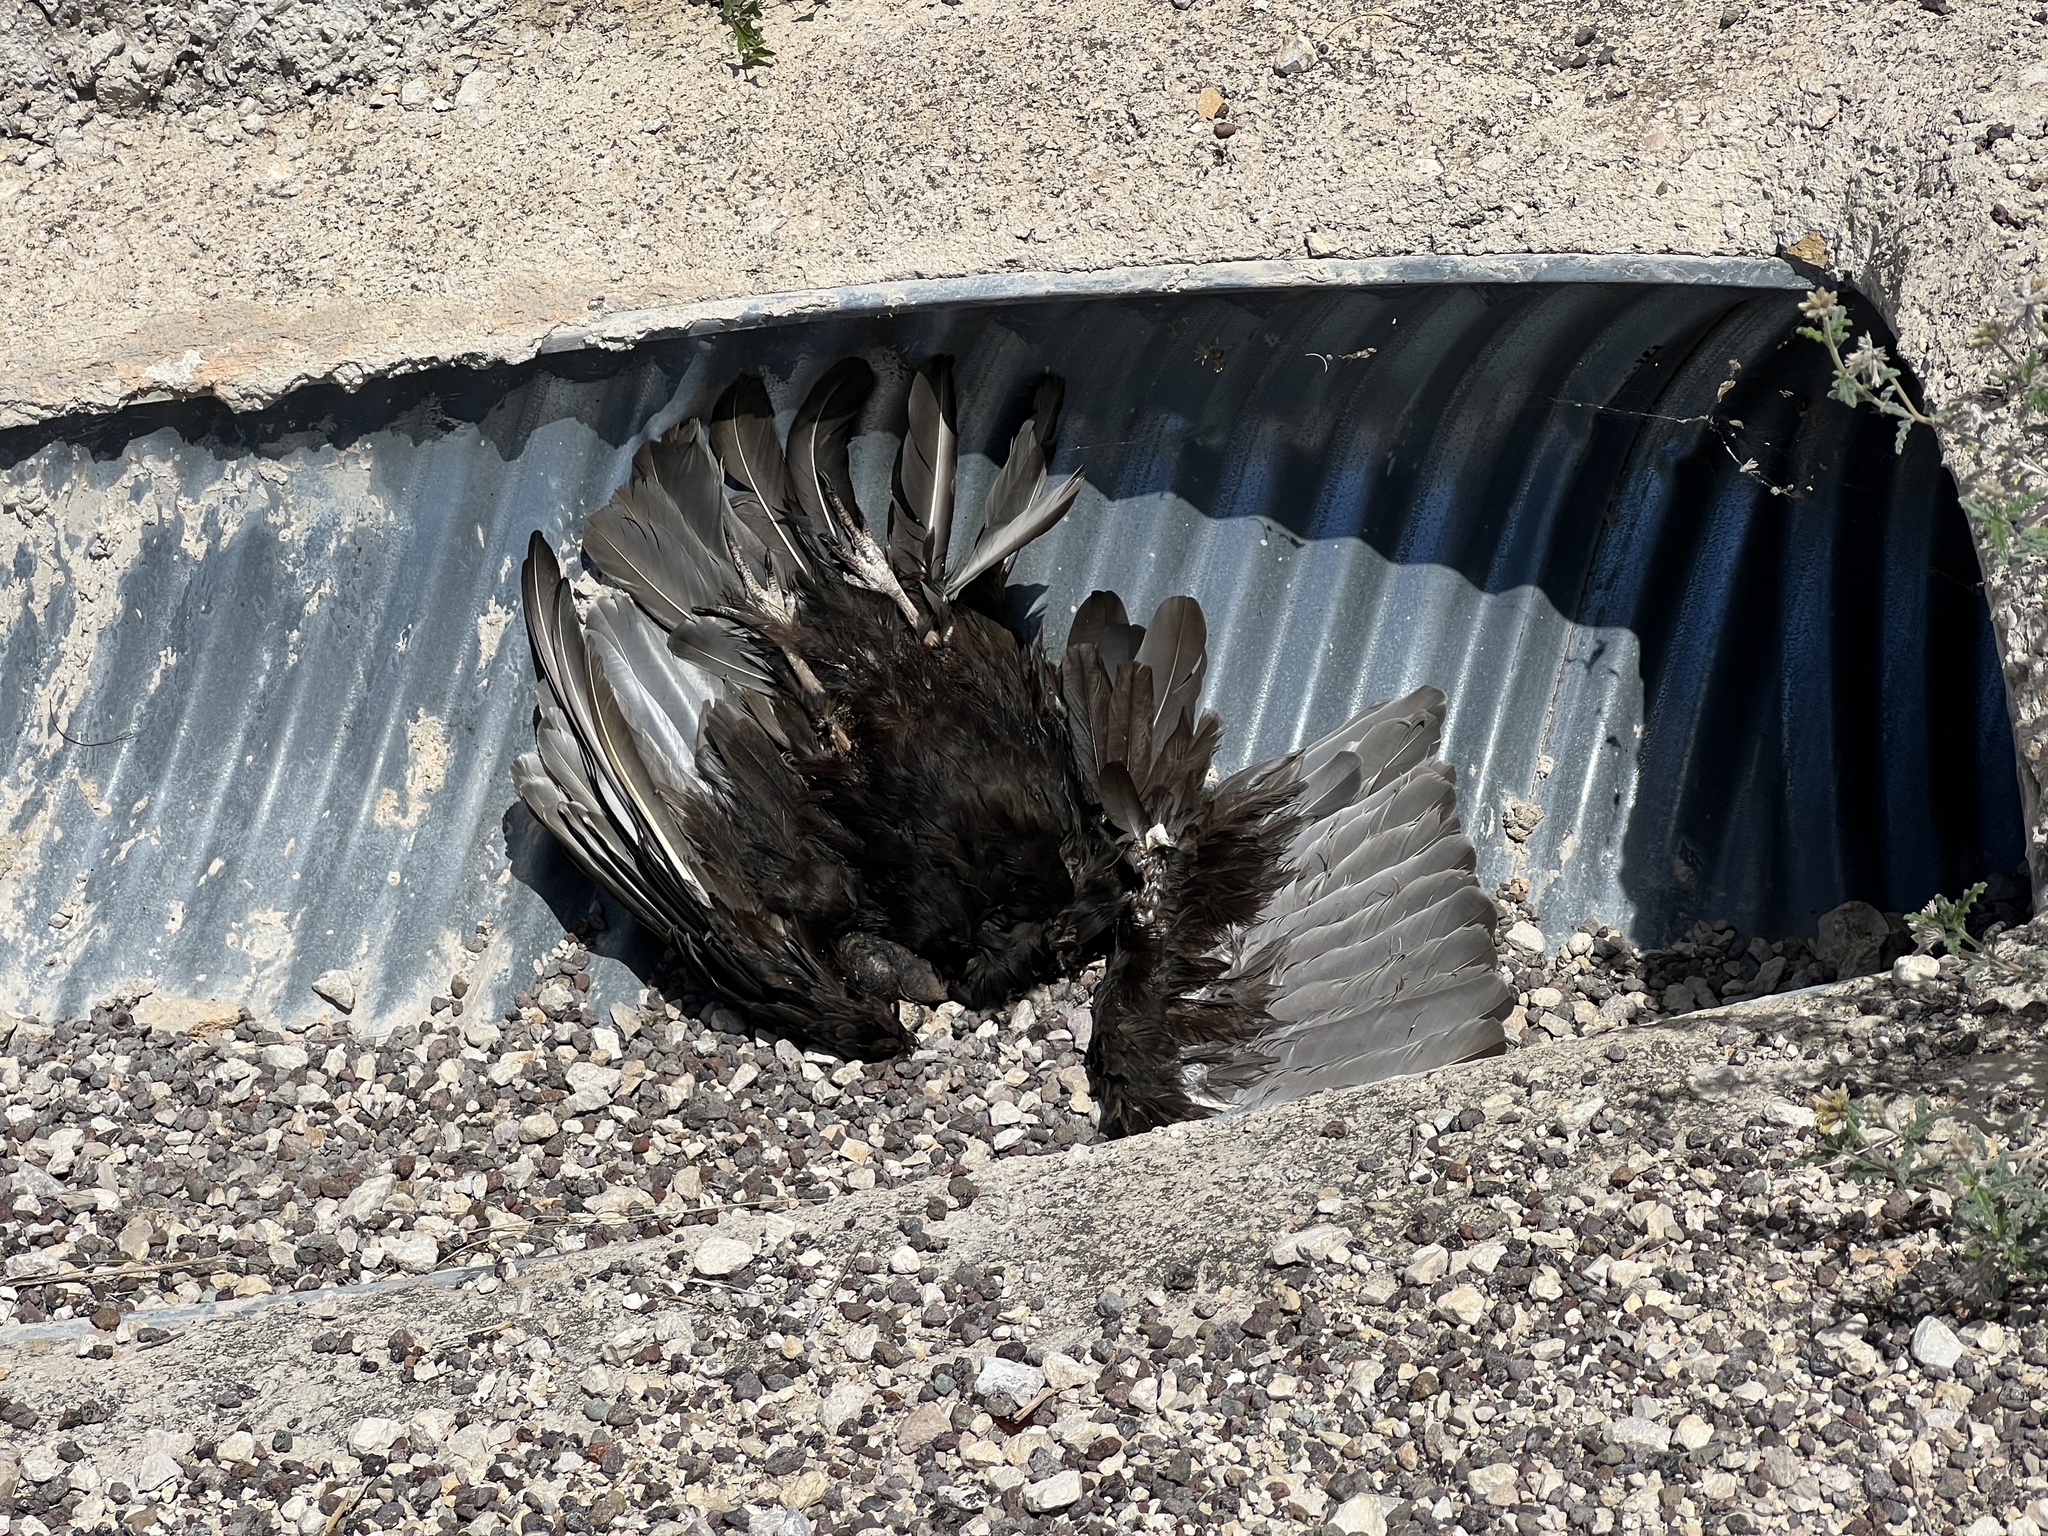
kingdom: Animalia
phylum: Chordata
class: Aves
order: Accipitriformes
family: Cathartidae
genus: Cathartes
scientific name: Cathartes aura
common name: Turkey vulture
